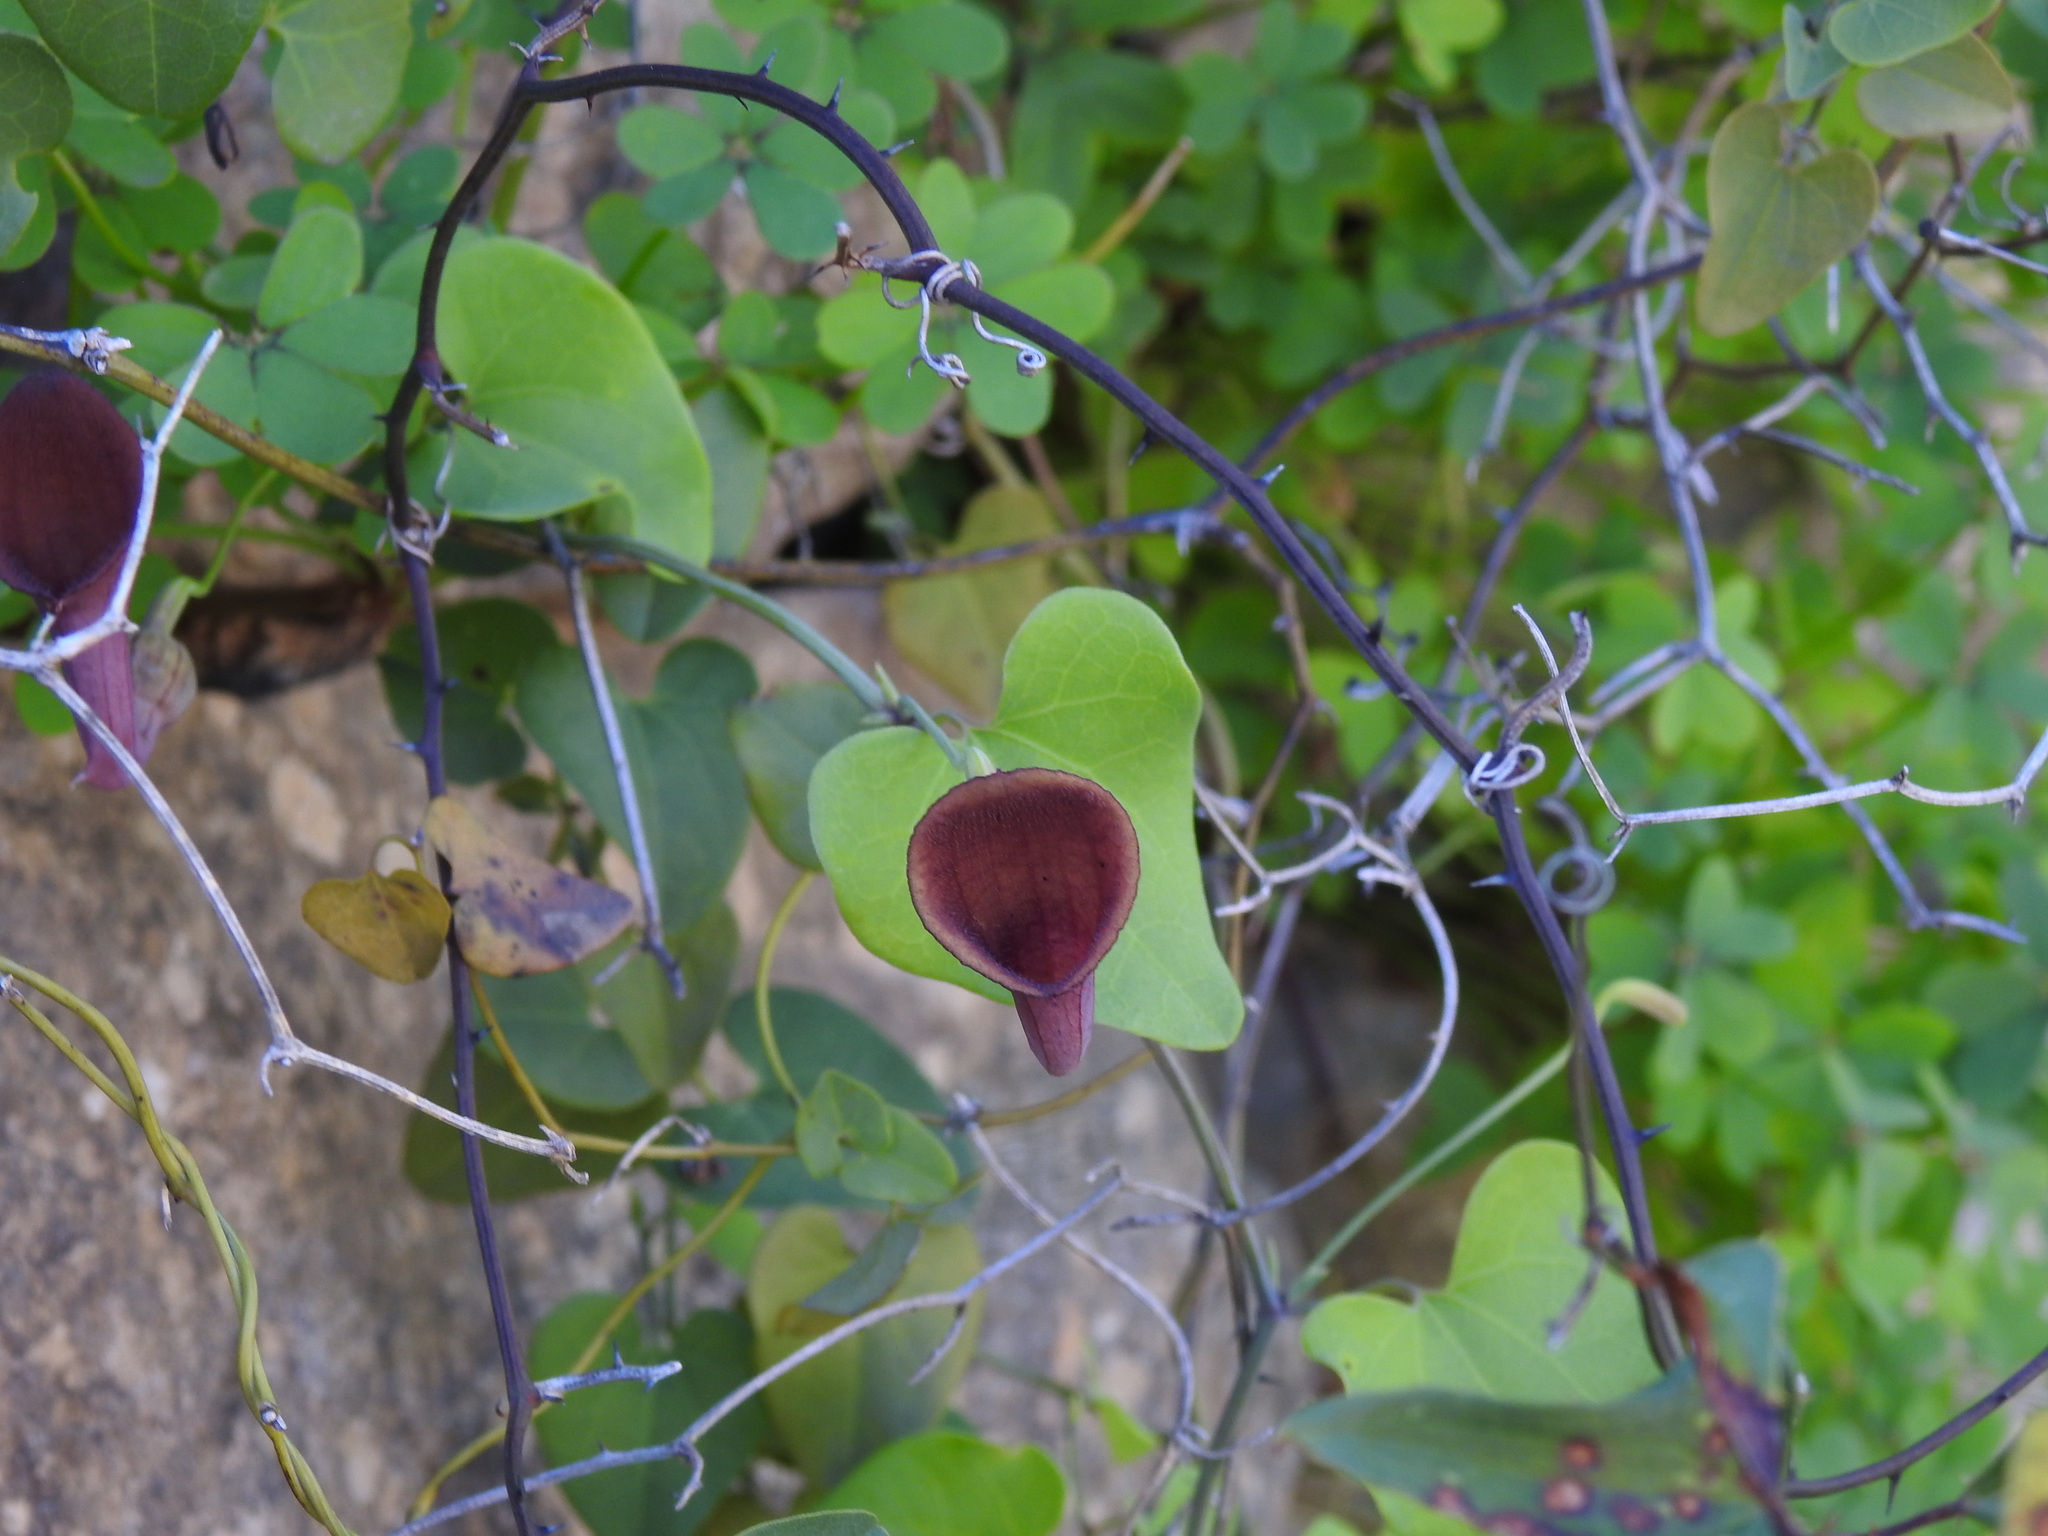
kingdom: Plantae
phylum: Tracheophyta
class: Magnoliopsida
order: Piperales
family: Aristolochiaceae
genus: Aristolochia
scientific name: Aristolochia baetica
